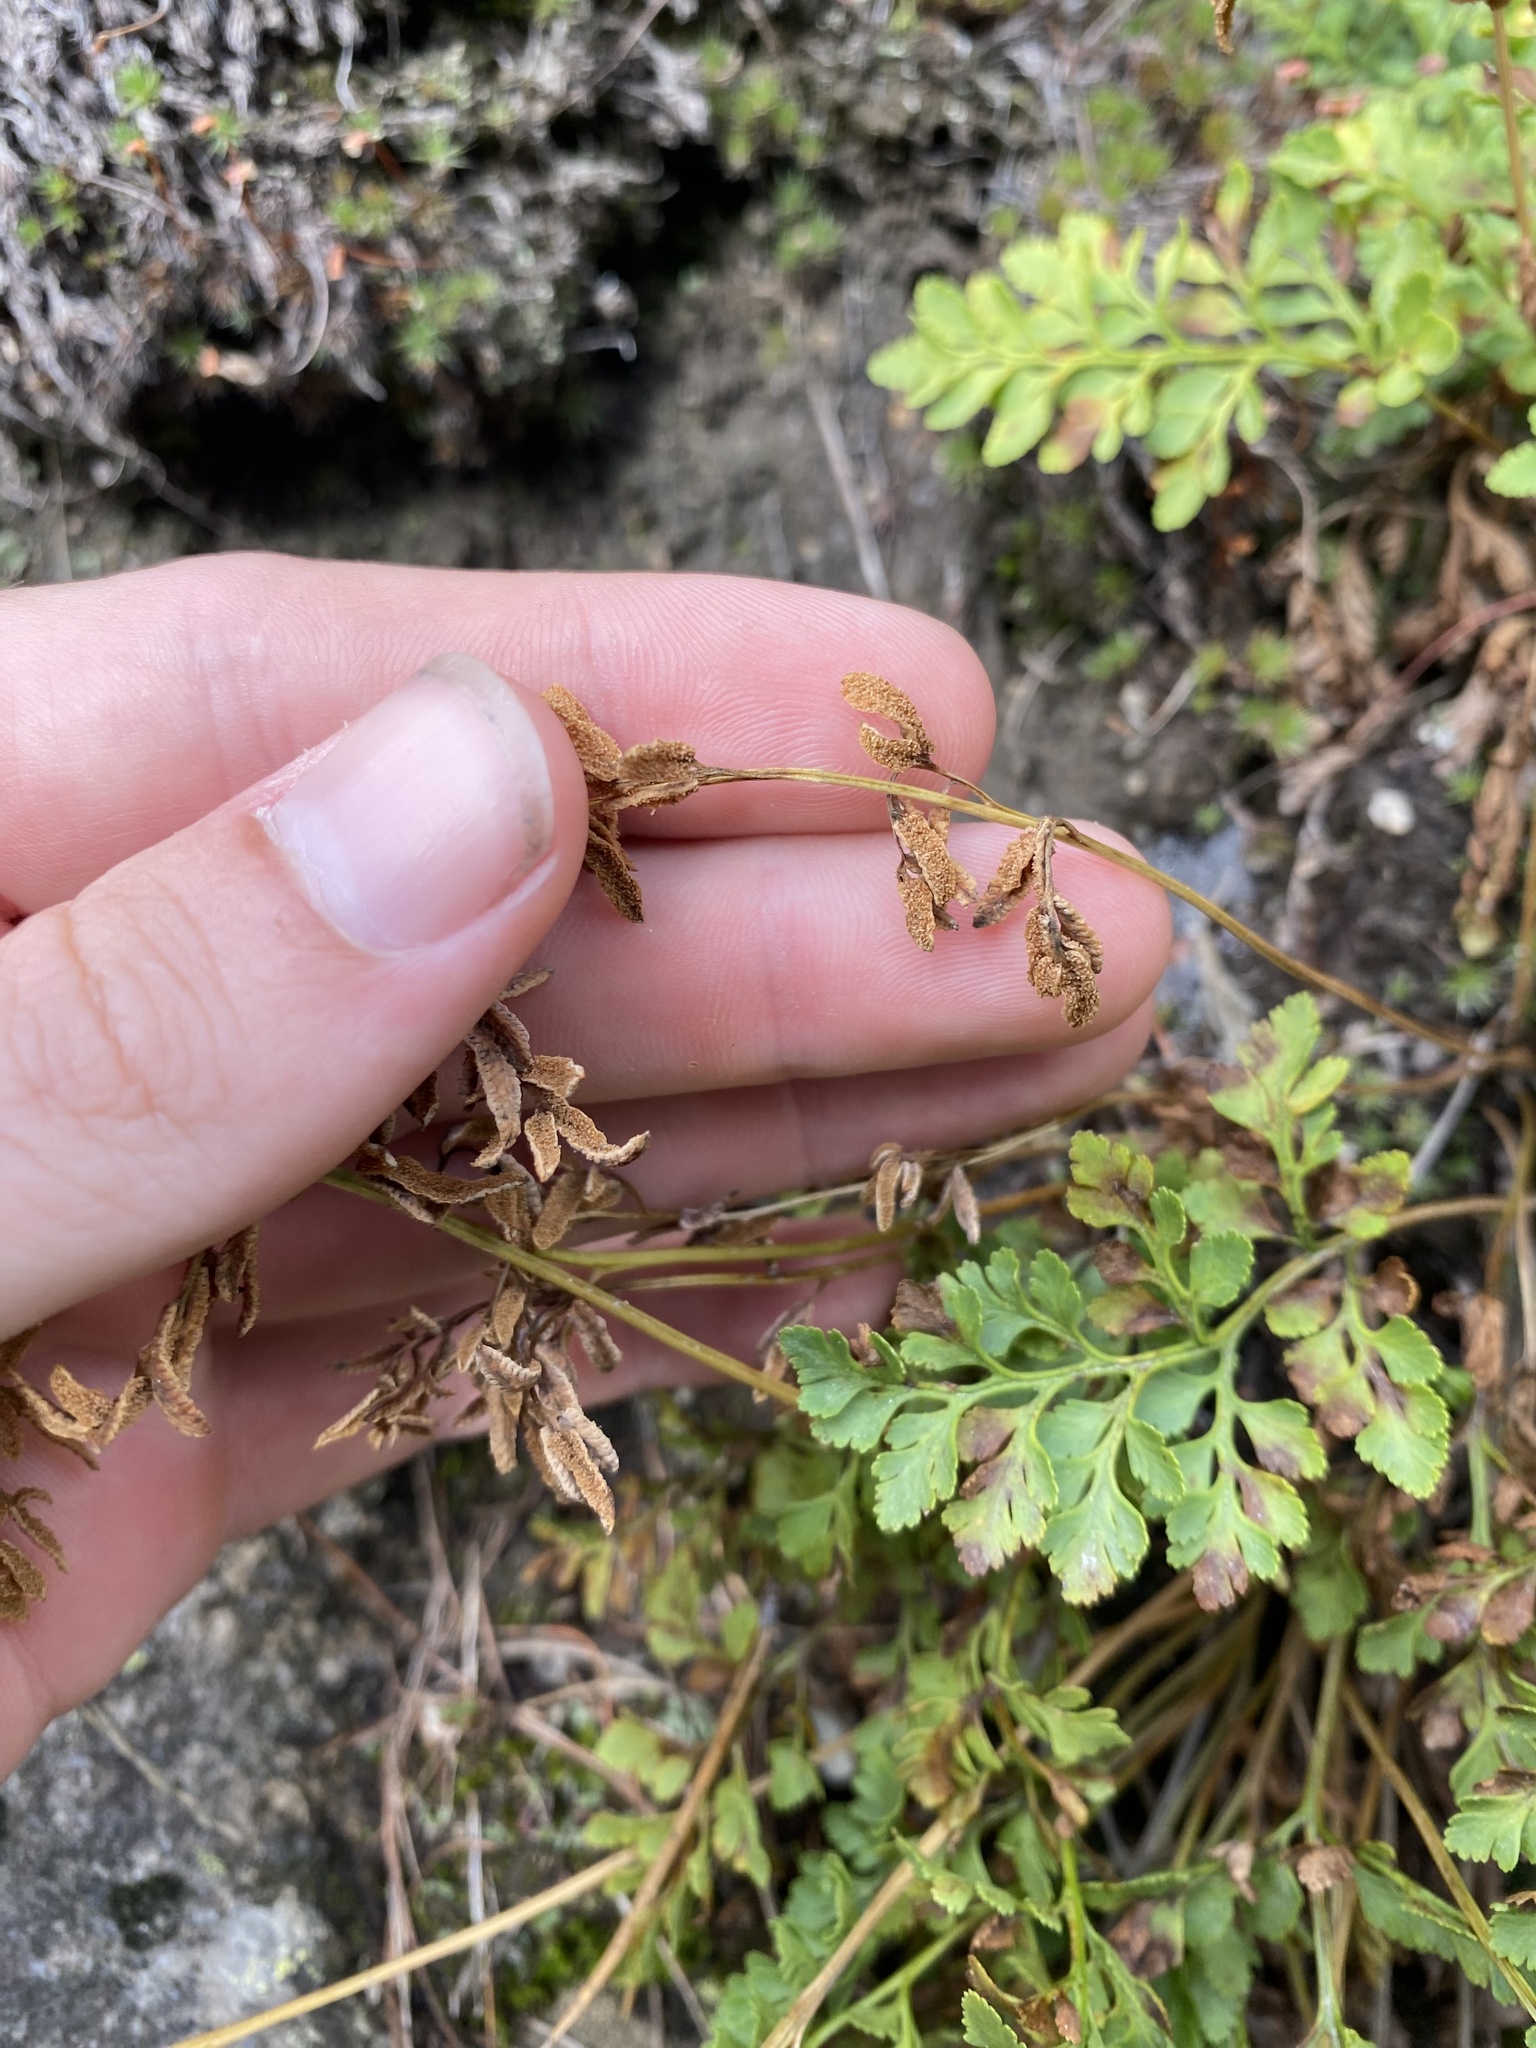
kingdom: Plantae
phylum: Tracheophyta
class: Polypodiopsida
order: Polypodiales
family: Pteridaceae
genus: Cryptogramma
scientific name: Cryptogramma acrostichoides
